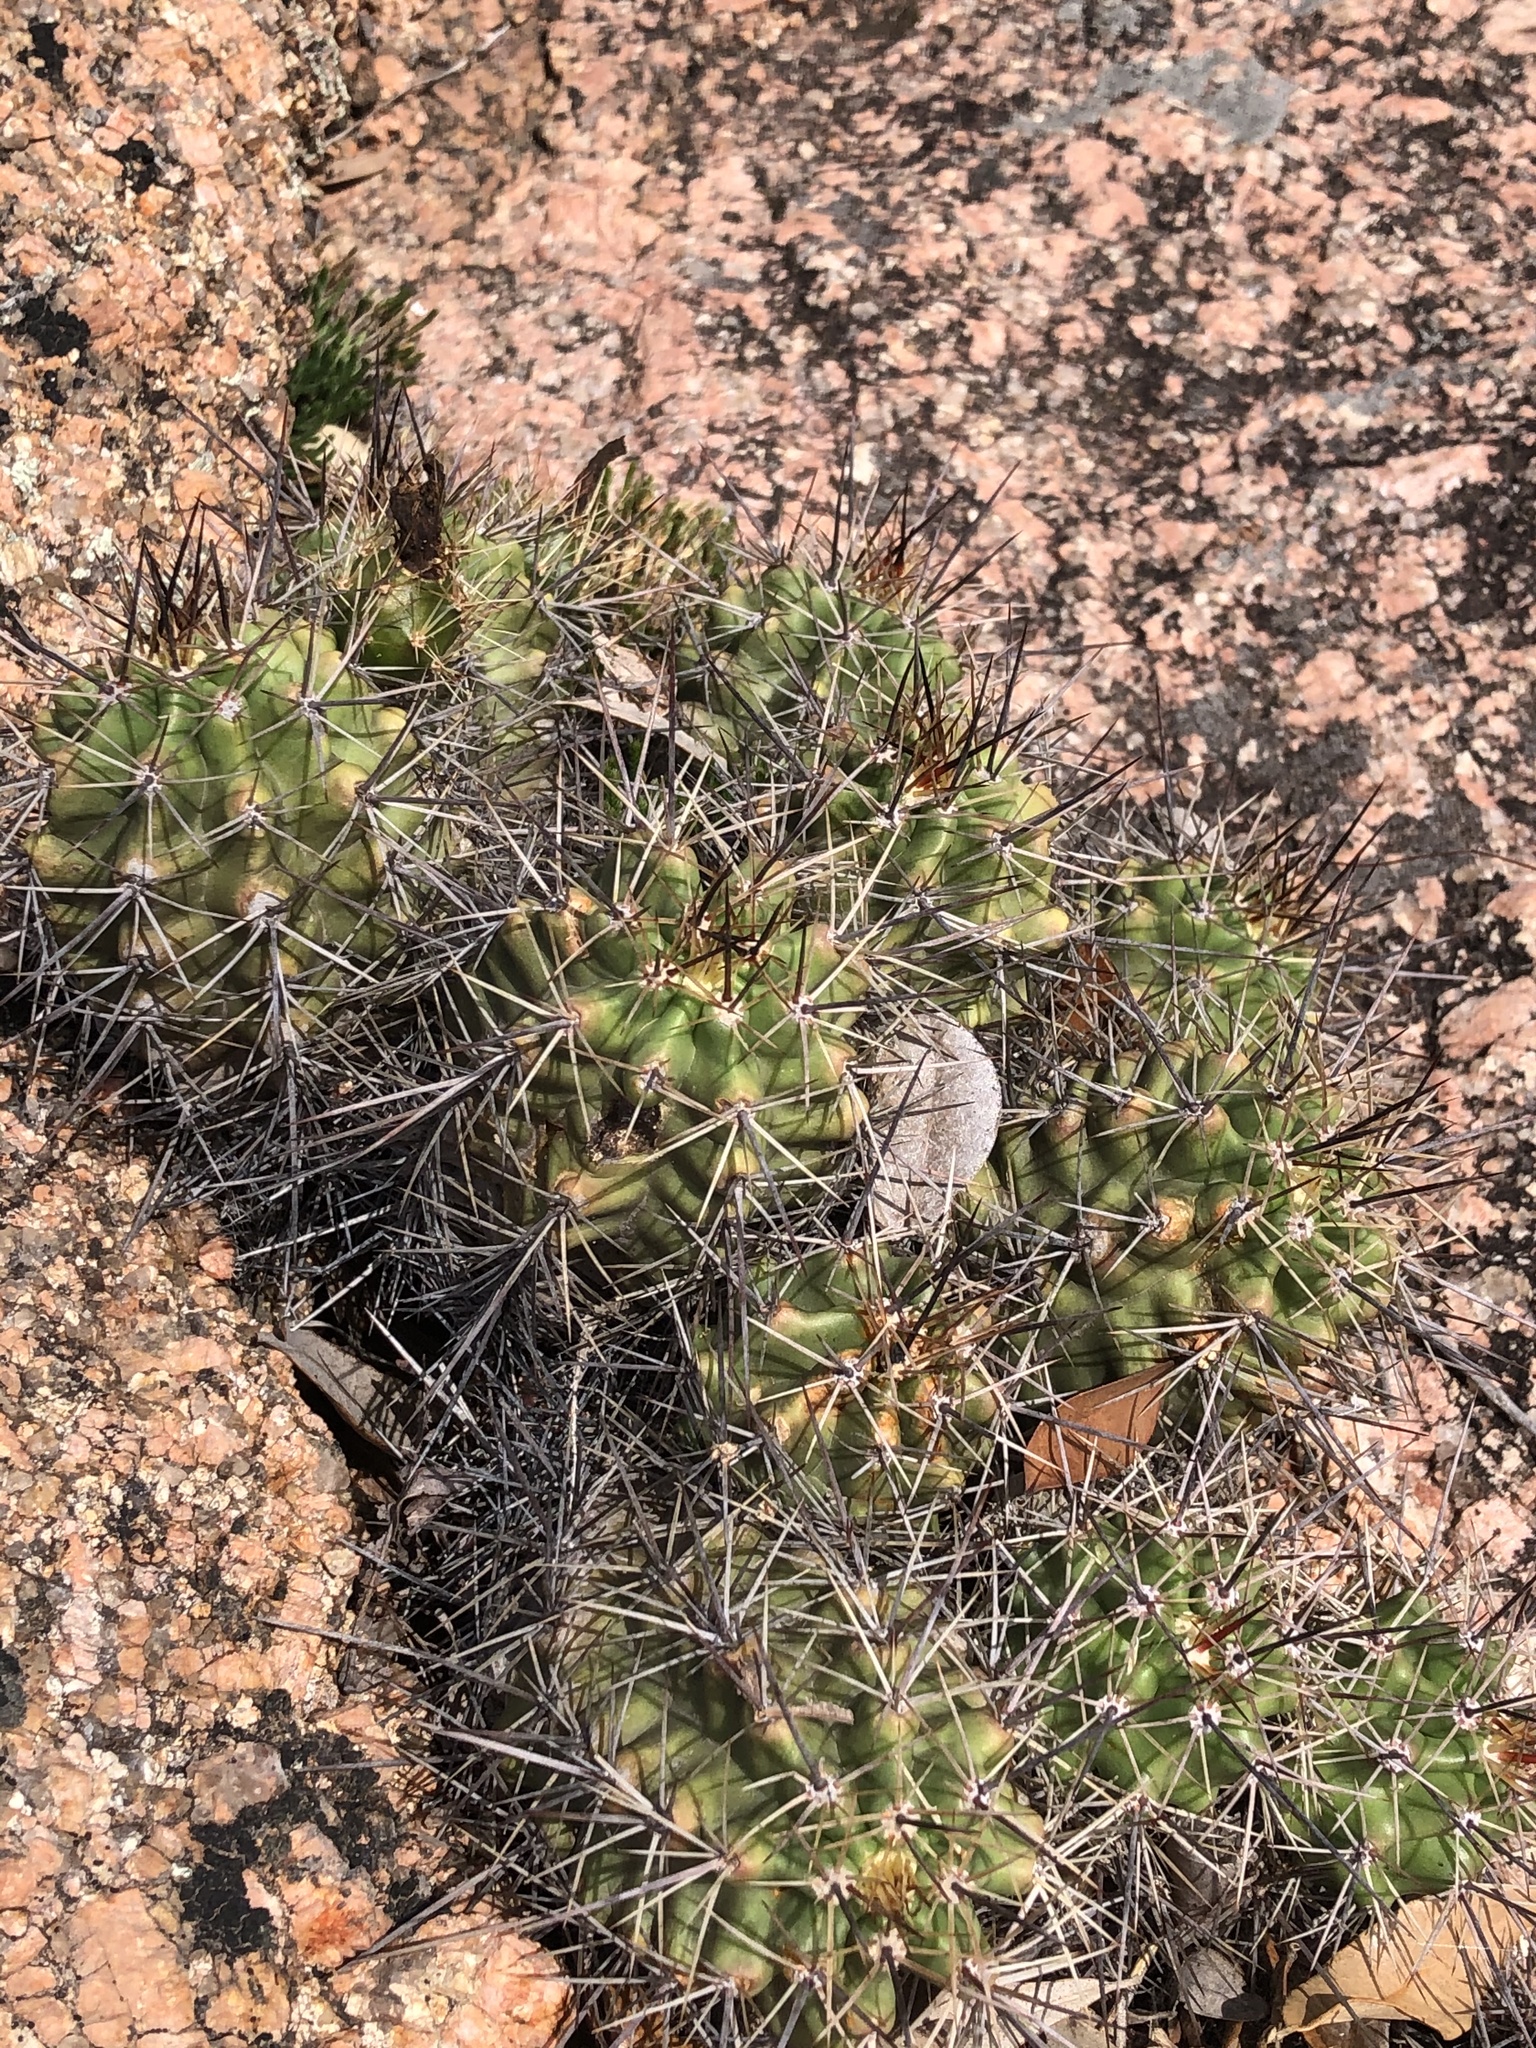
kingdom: Plantae
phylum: Tracheophyta
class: Magnoliopsida
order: Caryophyllales
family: Cactaceae
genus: Echinocereus
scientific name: Echinocereus coccineus
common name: Scarlet hedgehog cactus
